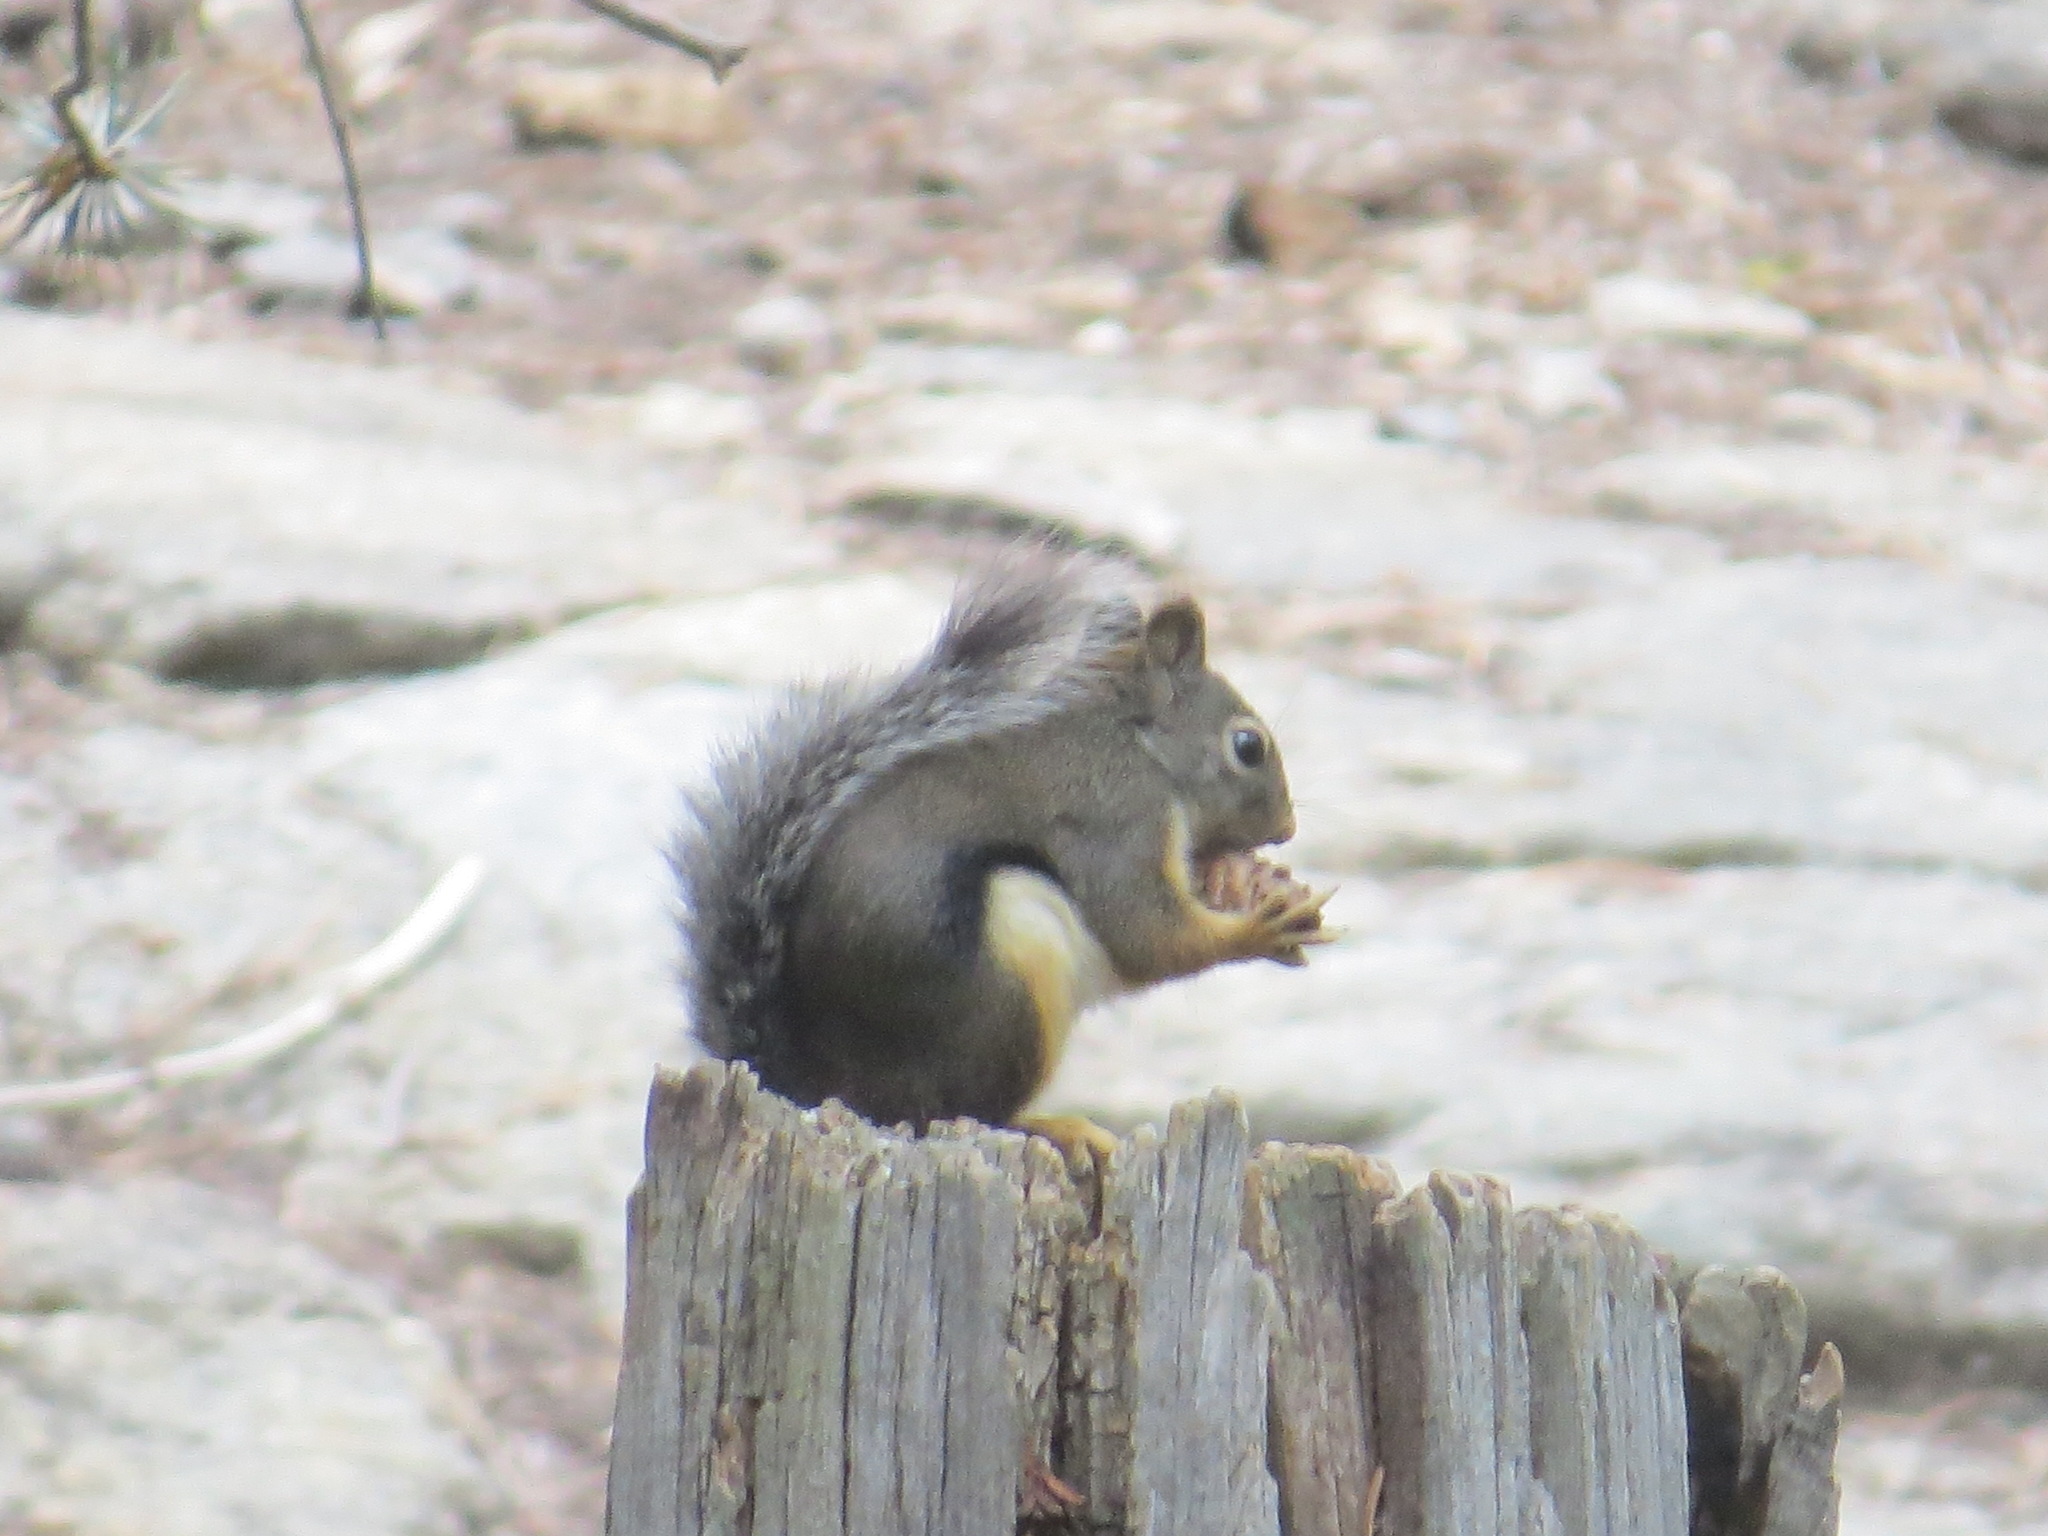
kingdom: Animalia
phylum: Chordata
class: Mammalia
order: Rodentia
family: Sciuridae
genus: Tamiasciurus
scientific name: Tamiasciurus douglasii
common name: Douglas's squirrel
